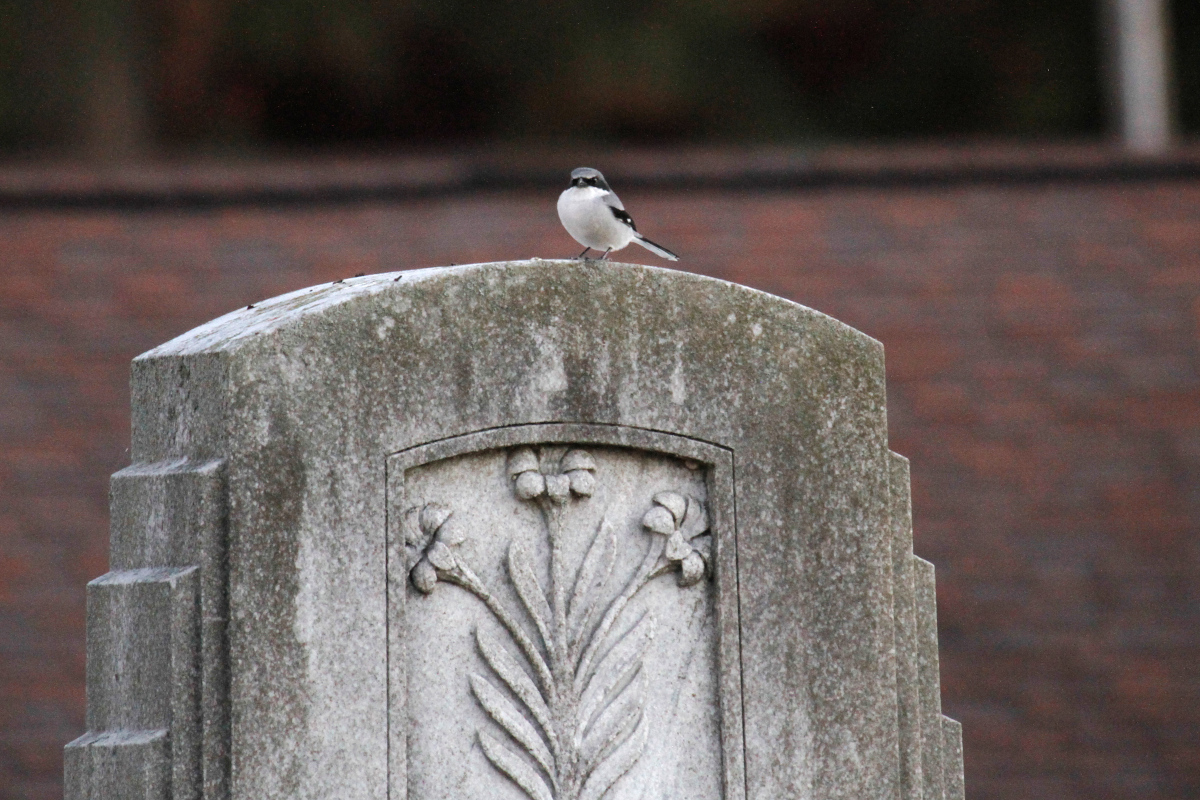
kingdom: Animalia
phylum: Chordata
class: Aves
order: Passeriformes
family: Laniidae
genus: Lanius
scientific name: Lanius ludovicianus
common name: Loggerhead shrike
